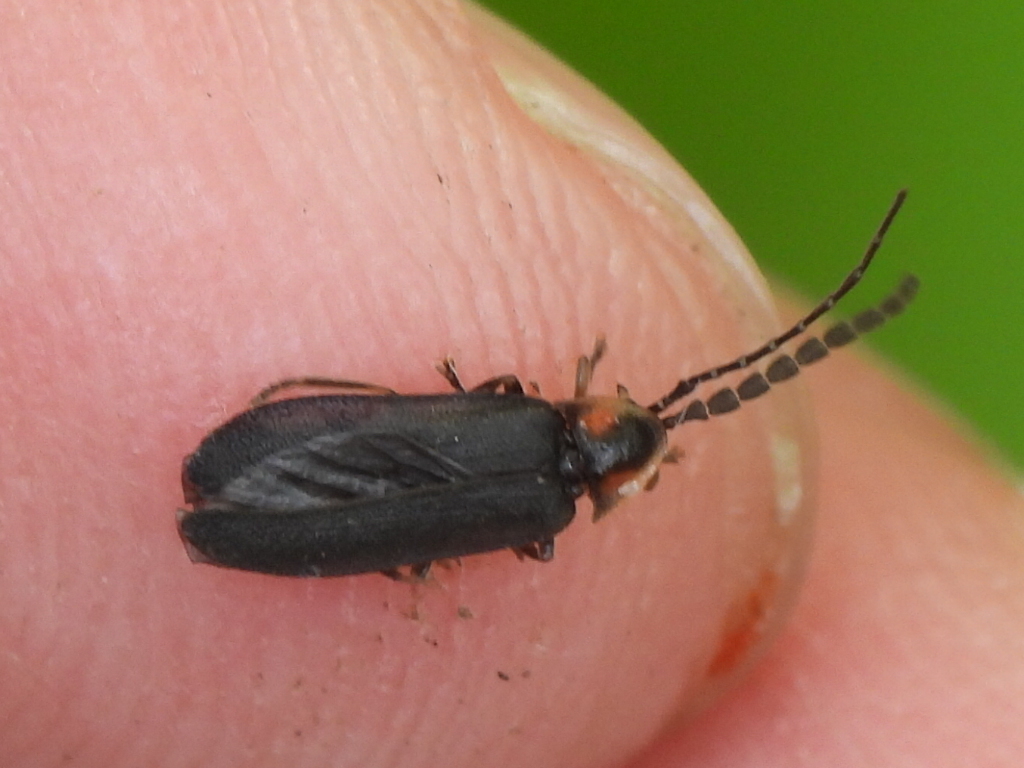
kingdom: Animalia
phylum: Arthropoda
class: Insecta
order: Coleoptera
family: Lampyridae
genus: Lucidota
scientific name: Lucidota punctata
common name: Dotted firefly
